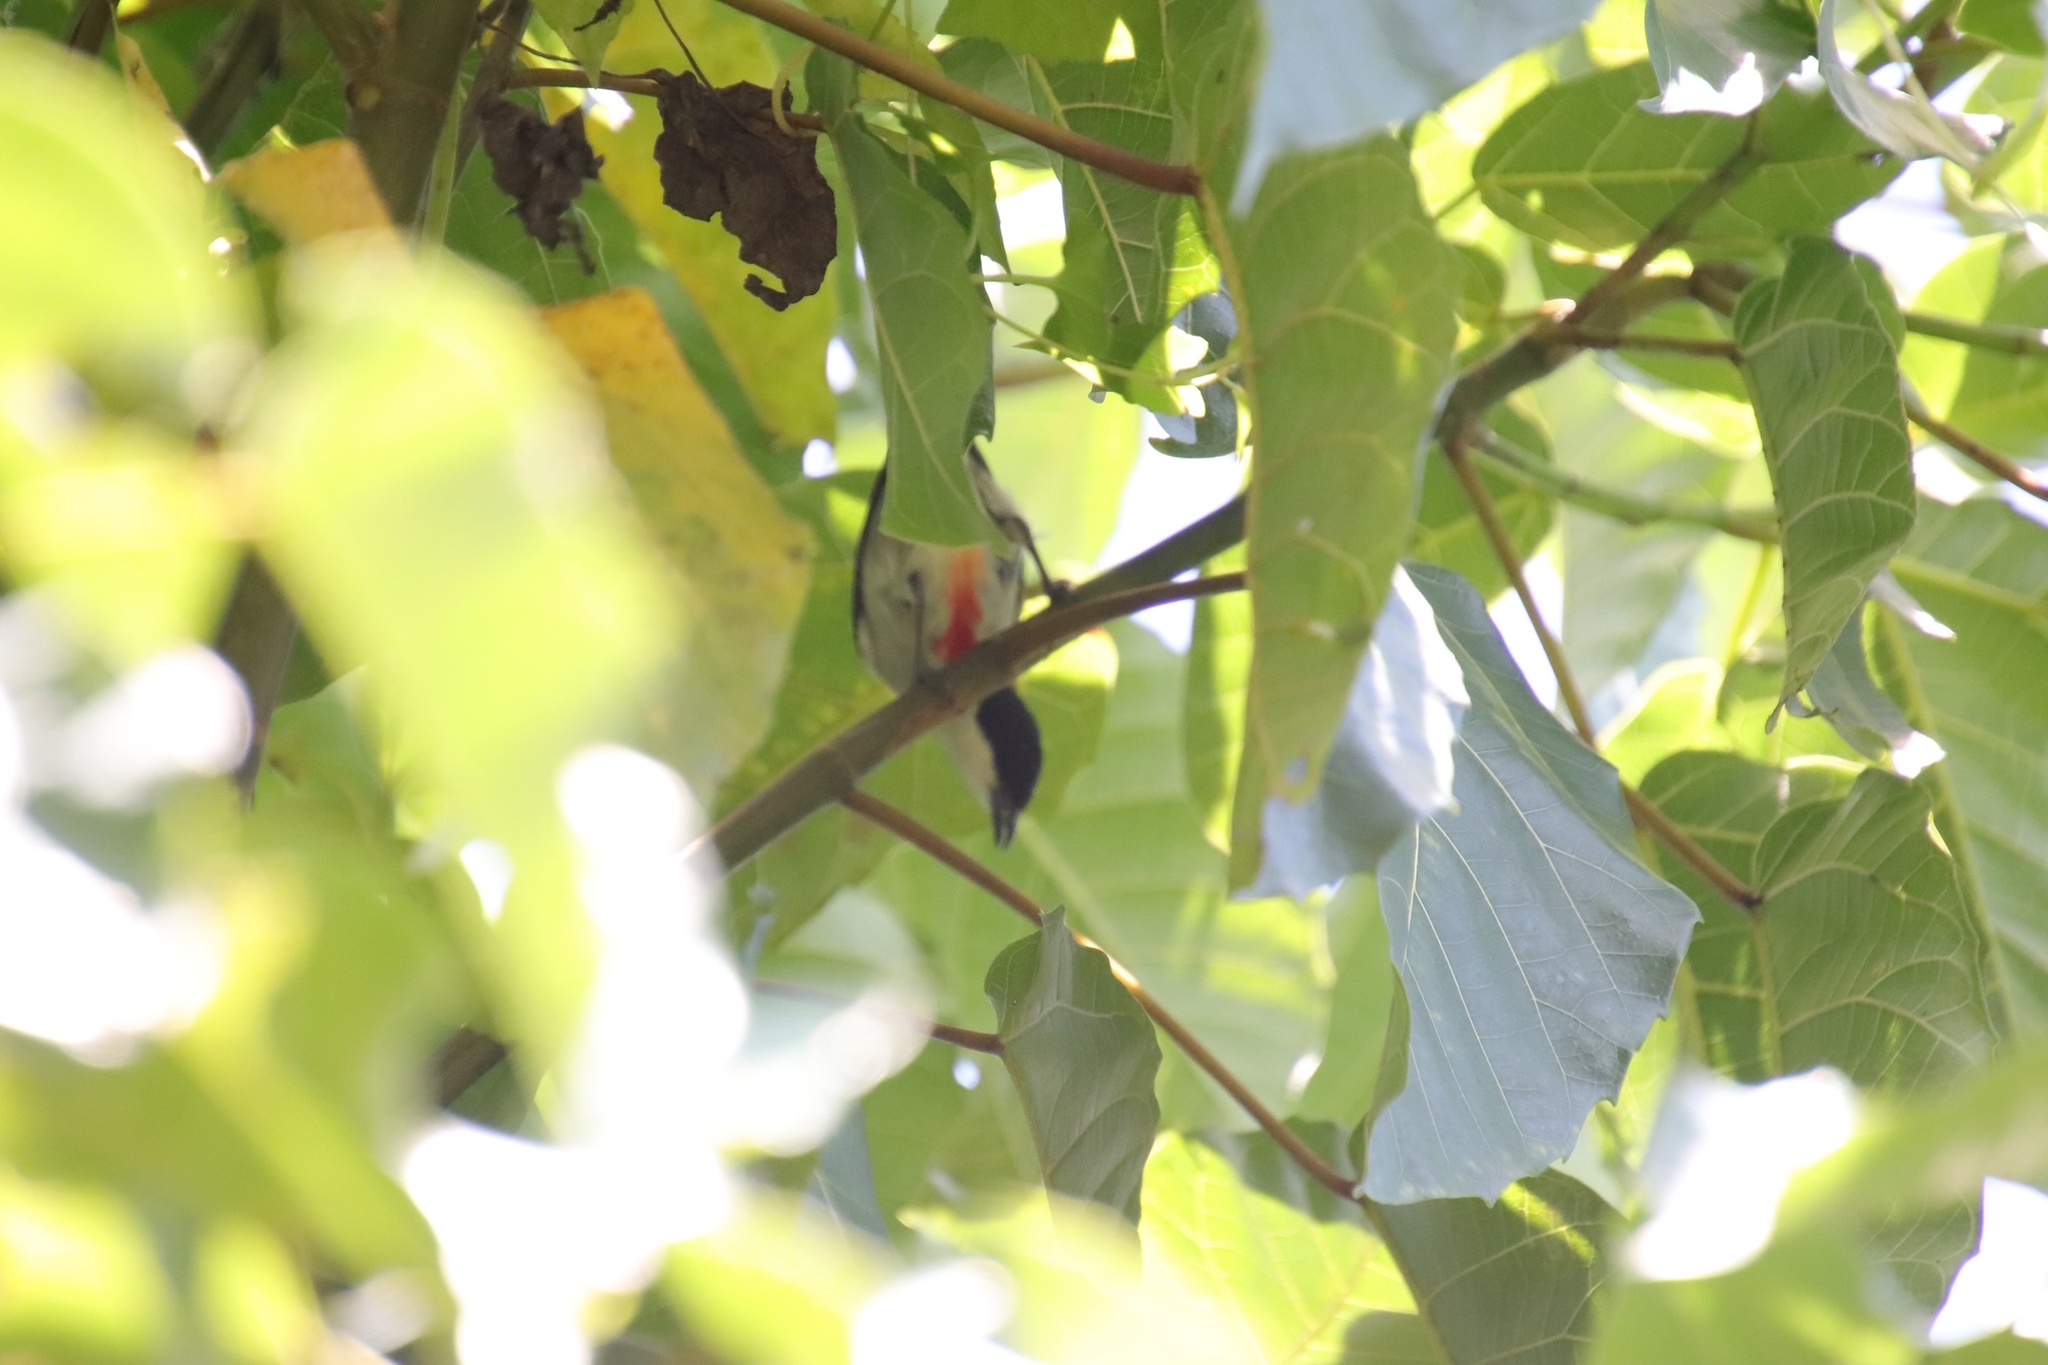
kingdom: Animalia
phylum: Chordata
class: Aves
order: Passeriformes
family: Dicaeidae
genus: Dicaeum
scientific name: Dicaeum australe
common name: Red-keeled flowerpecker
